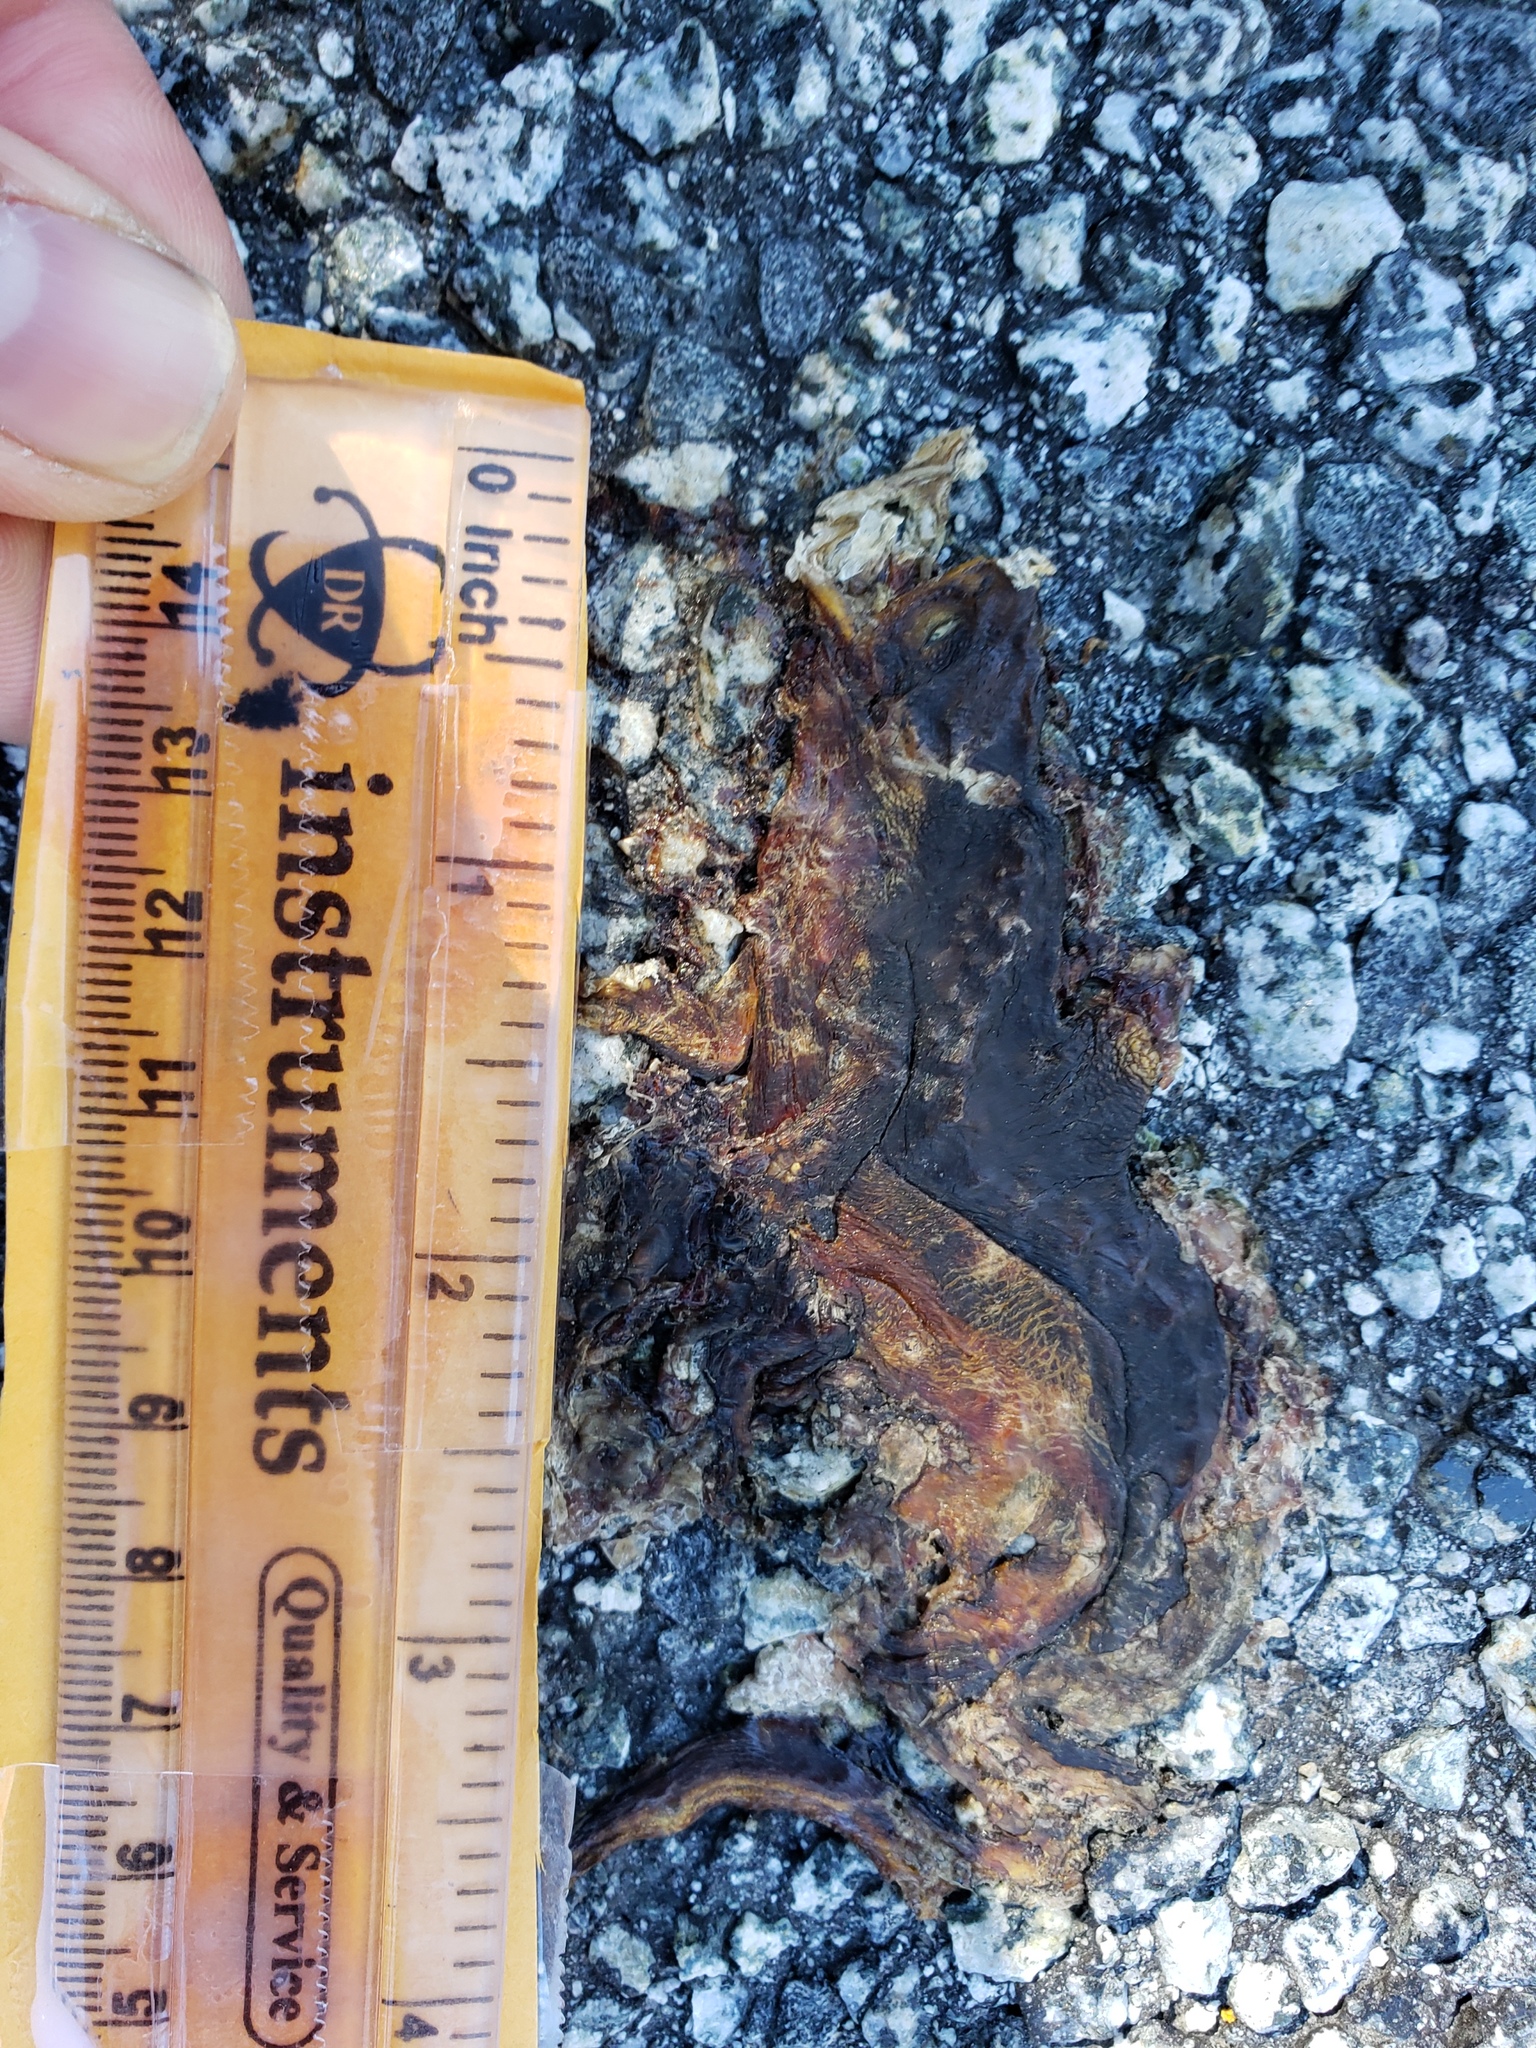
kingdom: Animalia
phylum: Chordata
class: Amphibia
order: Caudata
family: Salamandridae
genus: Taricha
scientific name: Taricha
